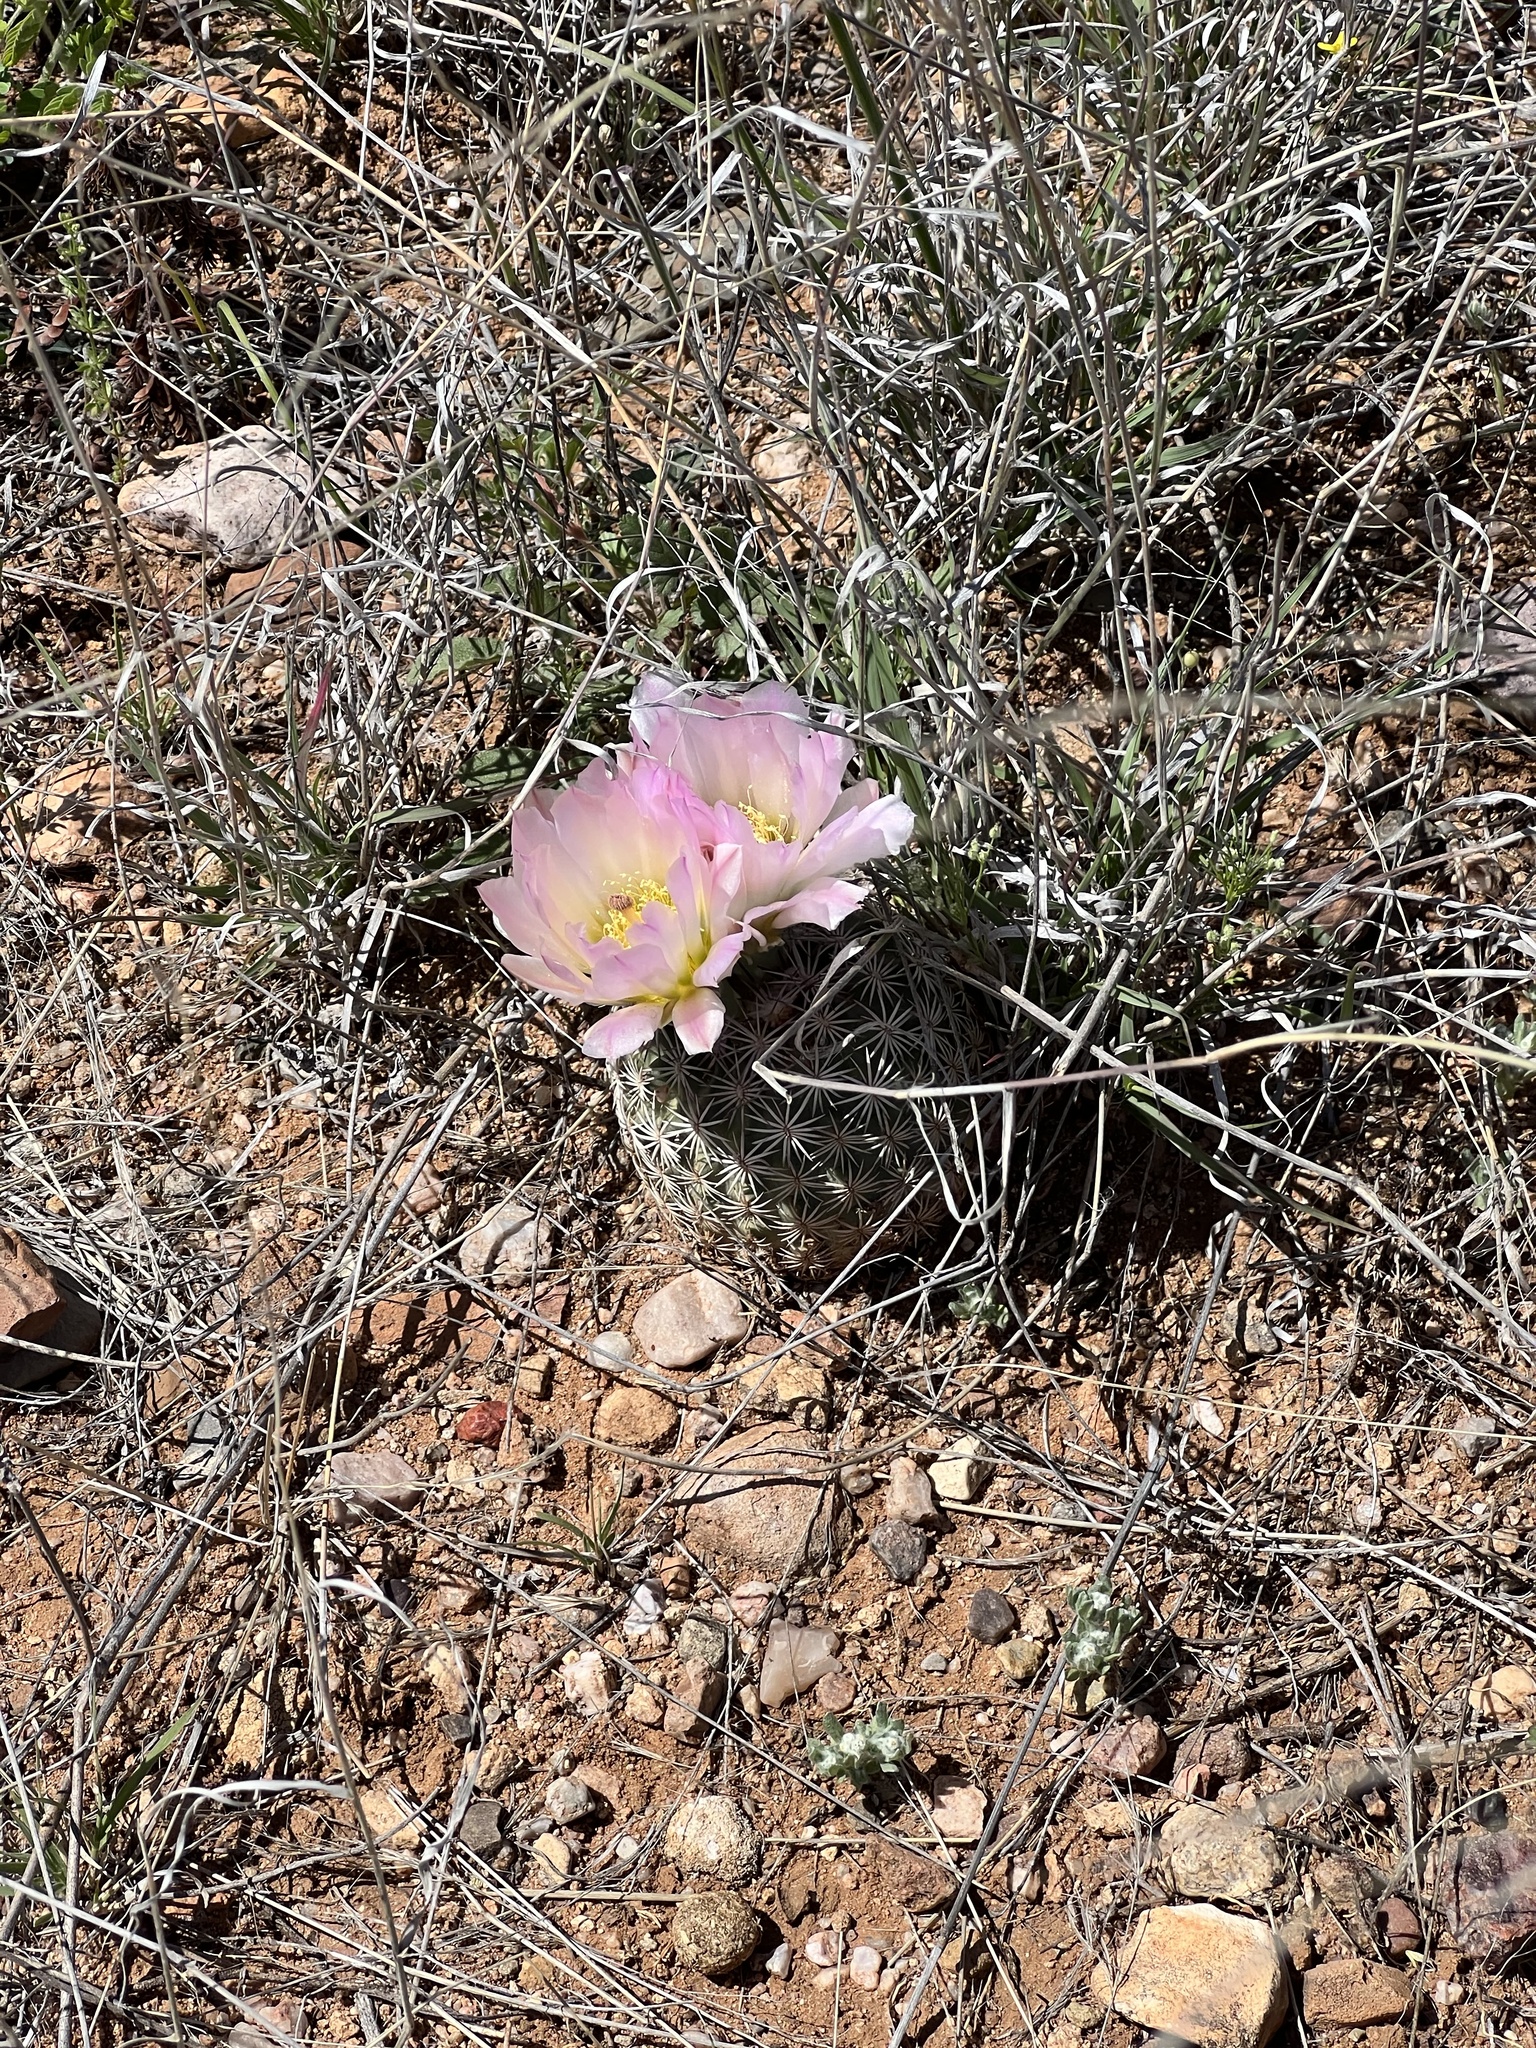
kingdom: Plantae
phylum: Tracheophyta
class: Magnoliopsida
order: Caryophyllales
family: Cactaceae
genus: Sclerocactus
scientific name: Sclerocactus johnsonii
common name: Eight-spine fishhook cactus
